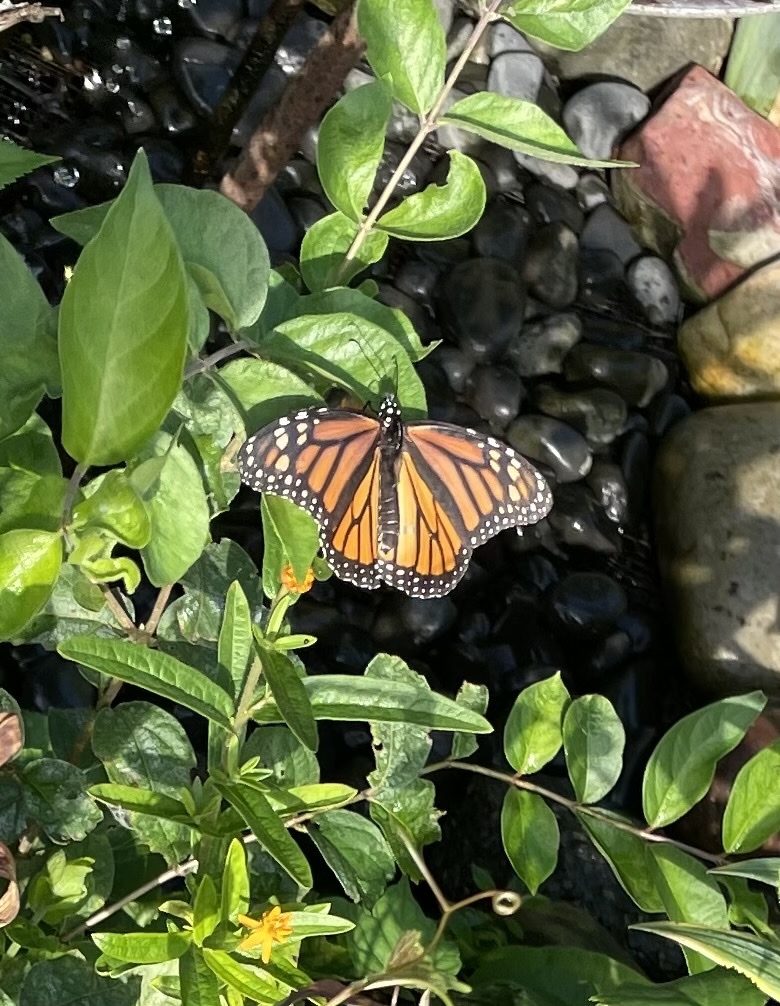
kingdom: Animalia
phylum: Arthropoda
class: Insecta
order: Lepidoptera
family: Nymphalidae
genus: Danaus
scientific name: Danaus plexippus
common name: Monarch
